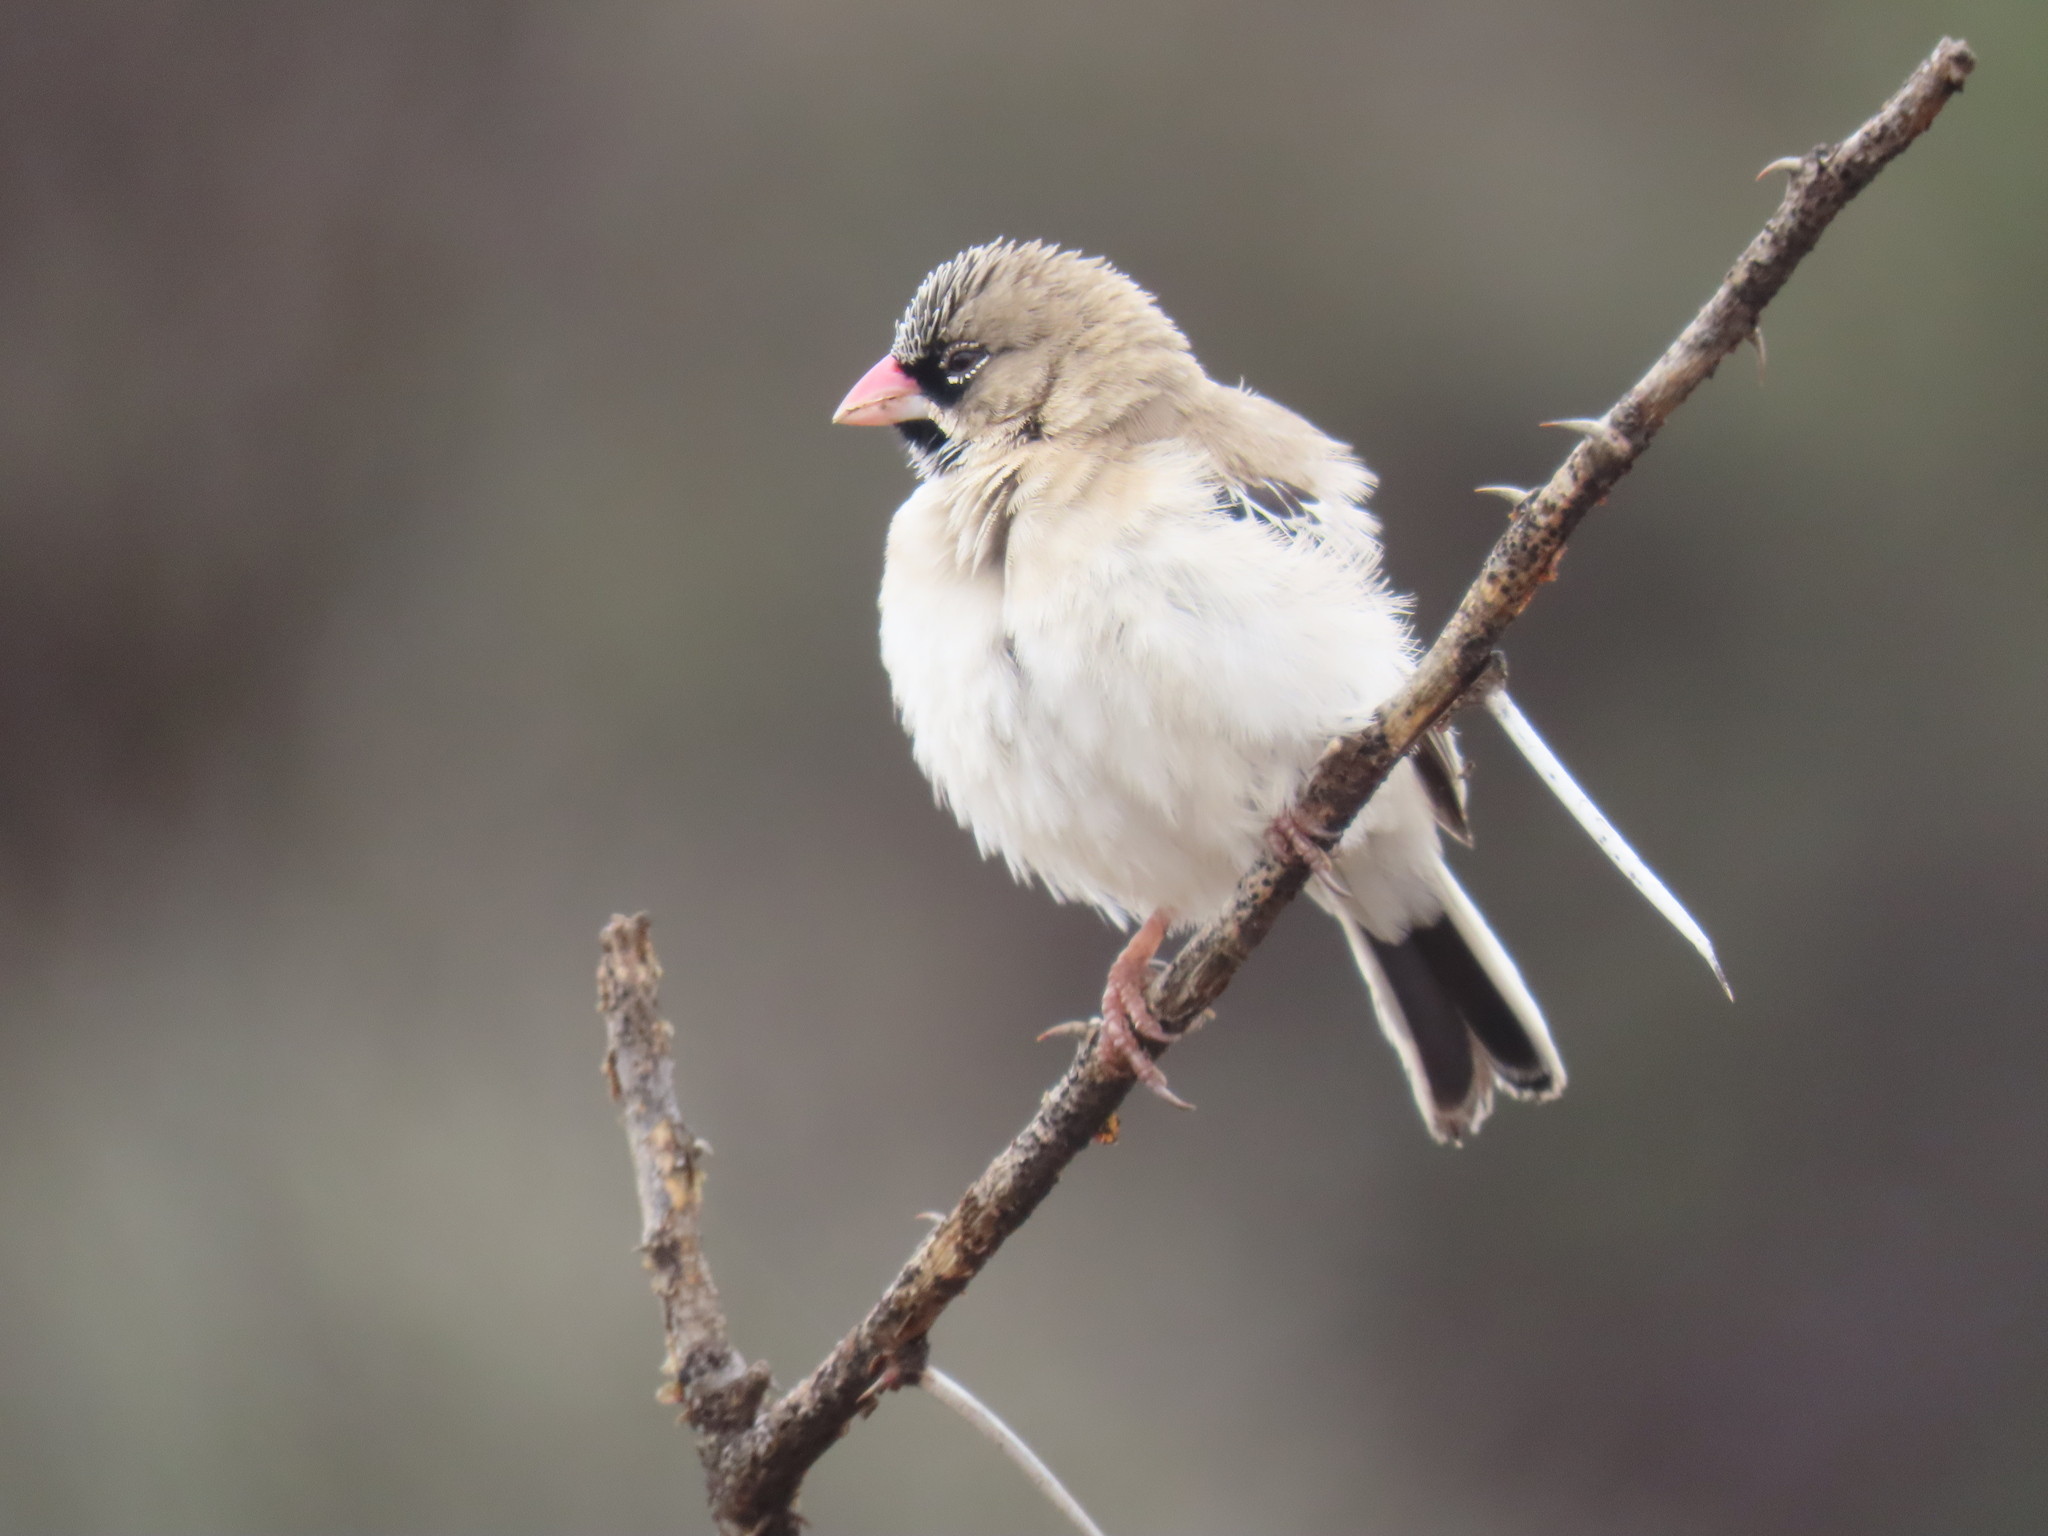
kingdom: Animalia
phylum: Chordata
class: Aves
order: Passeriformes
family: Ploceidae
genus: Sporopipes
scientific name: Sporopipes squamifrons
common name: Scaly-feathered weaver
